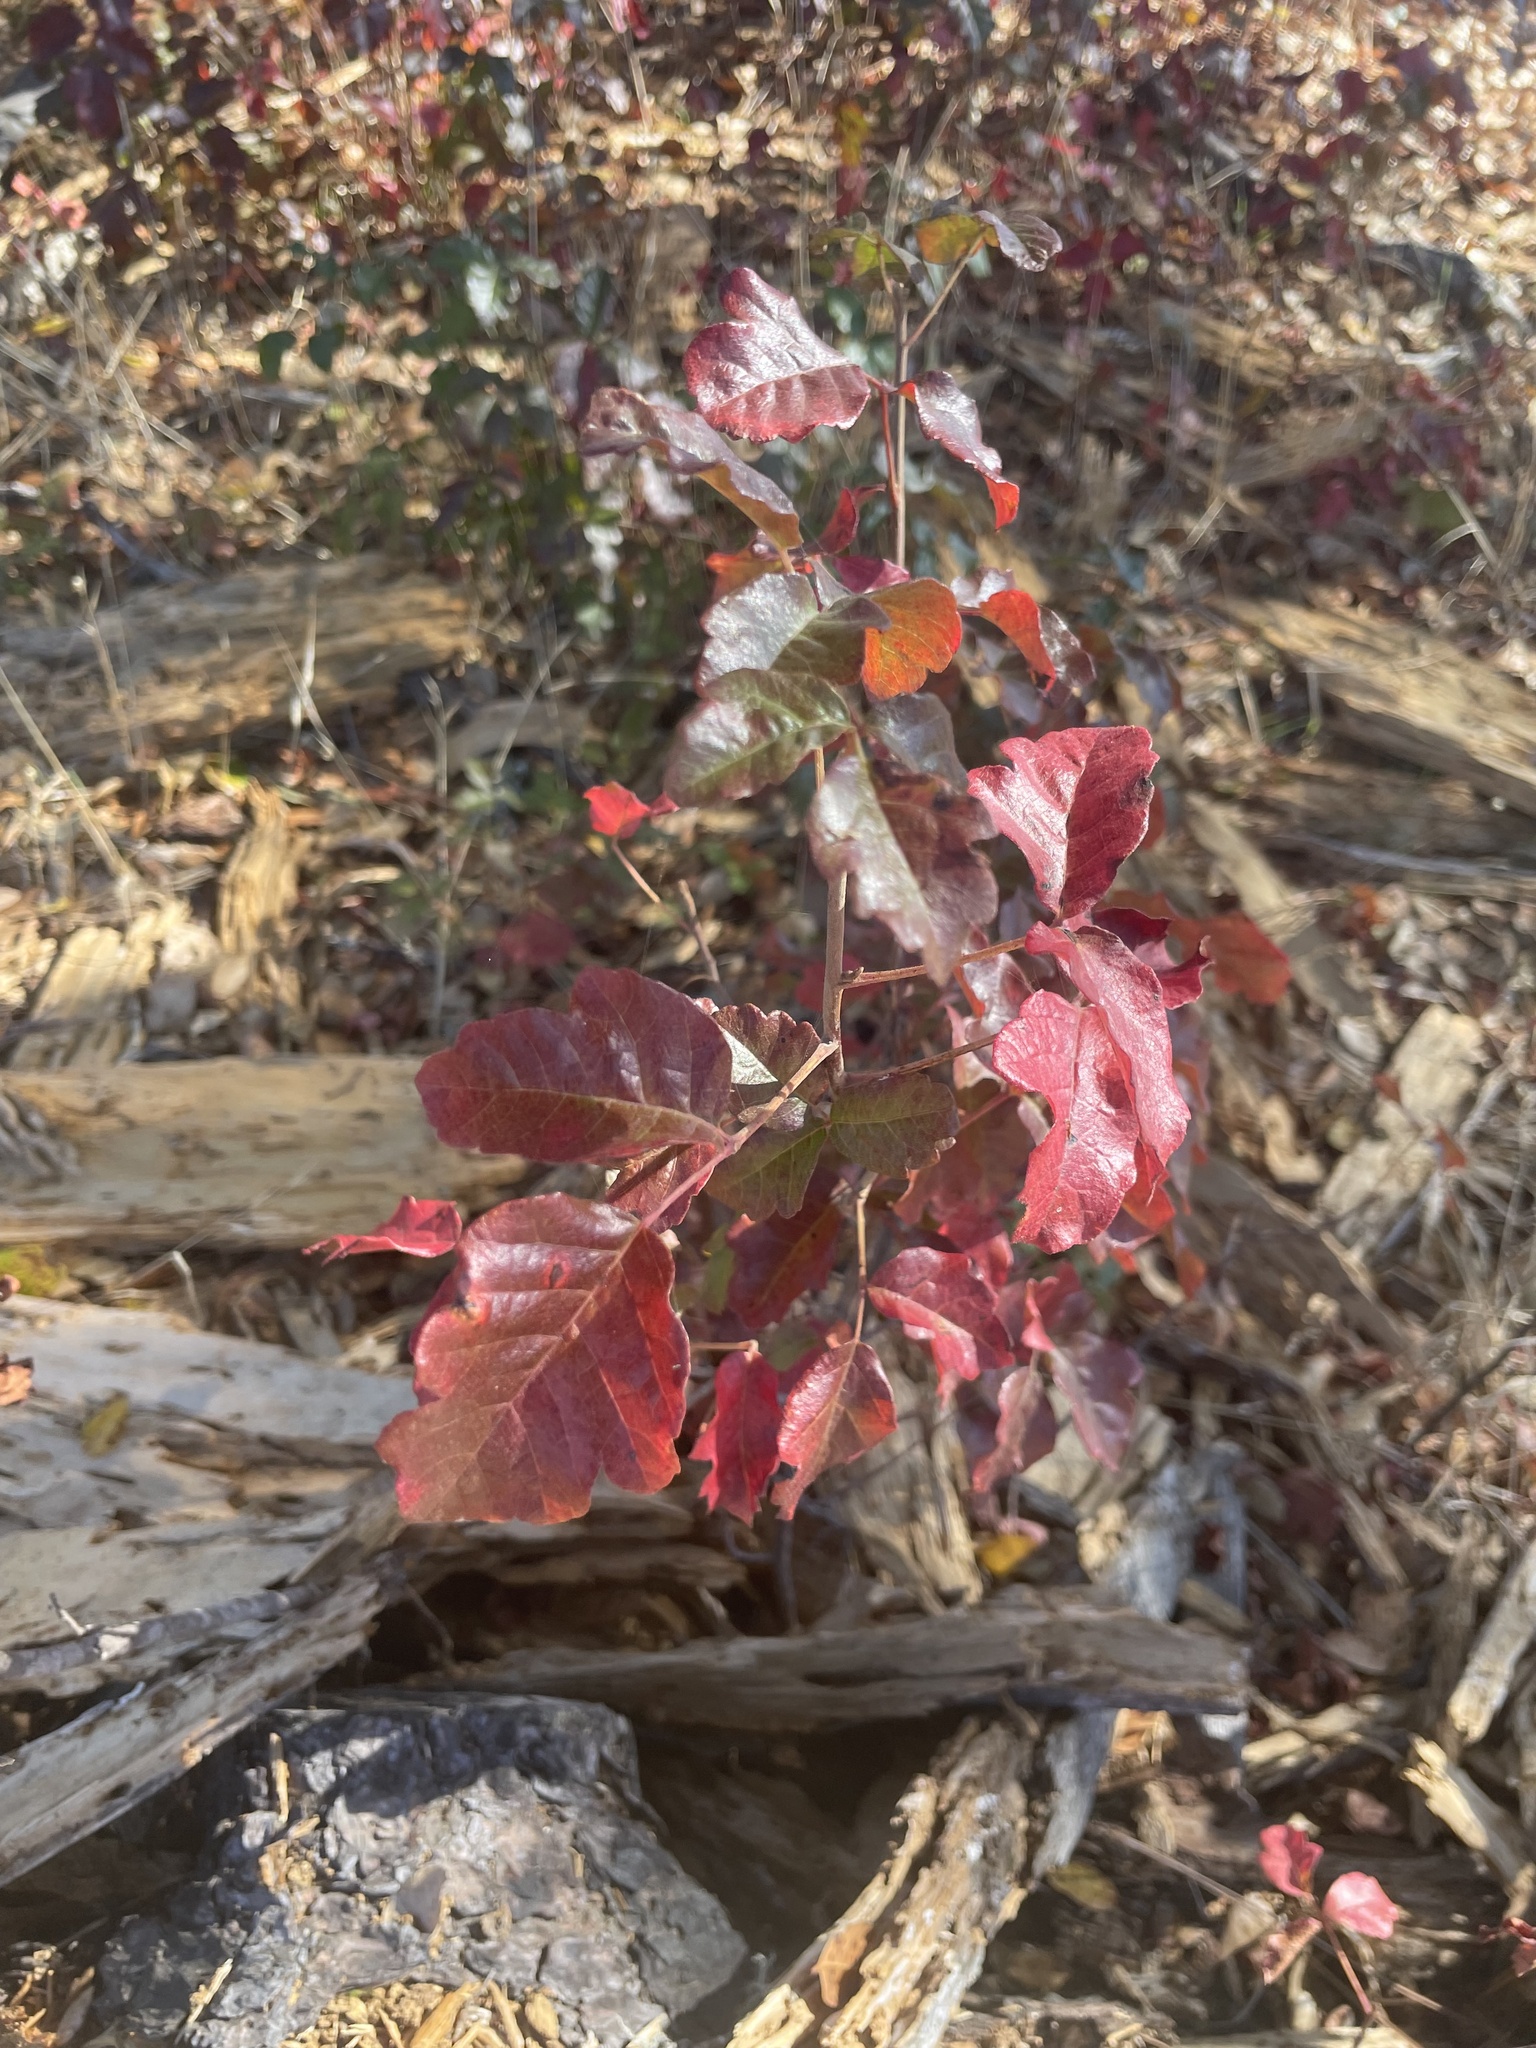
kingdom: Plantae
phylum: Tracheophyta
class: Magnoliopsida
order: Sapindales
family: Anacardiaceae
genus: Toxicodendron
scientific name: Toxicodendron diversilobum
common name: Pacific poison-oak
